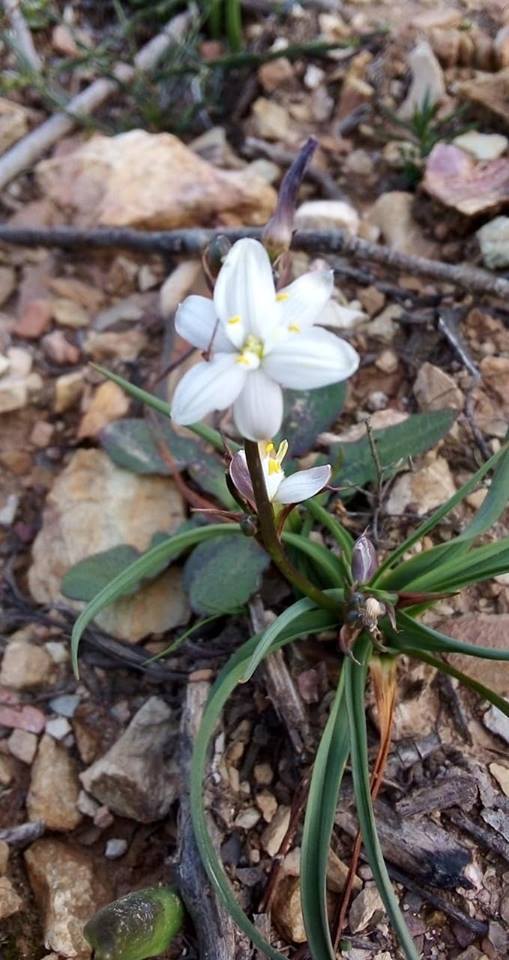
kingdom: Plantae
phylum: Tracheophyta
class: Liliopsida
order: Asparagales
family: Asphodelaceae
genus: Simethis
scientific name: Simethis mattiazzii
